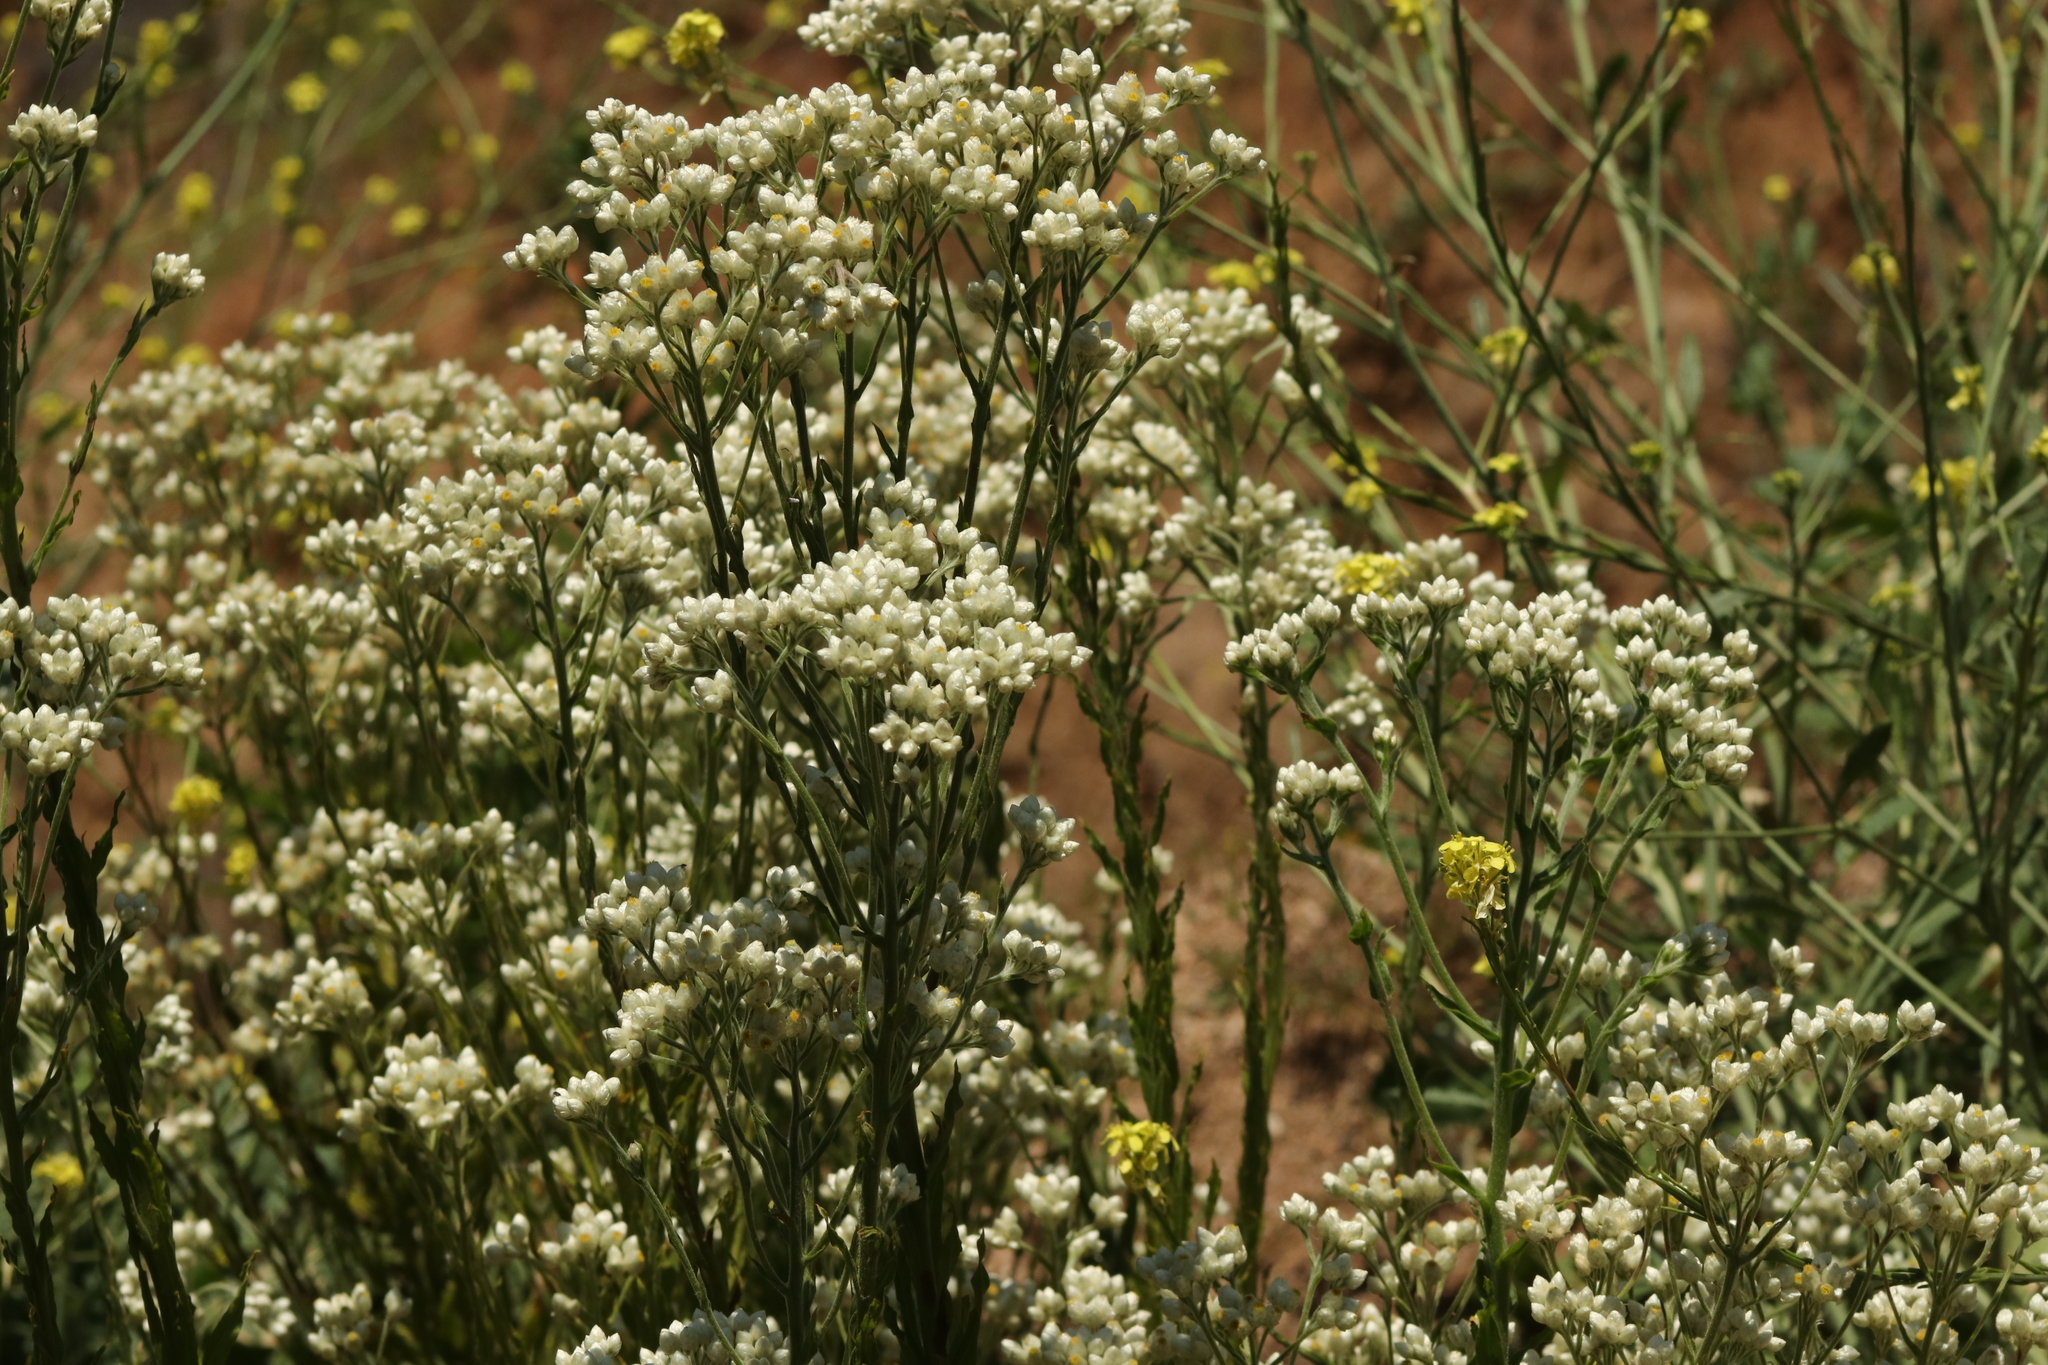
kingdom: Plantae
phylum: Tracheophyta
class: Magnoliopsida
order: Asterales
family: Asteraceae
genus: Pseudognaphalium
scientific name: Pseudognaphalium californicum
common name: California rabbit-tobacco
